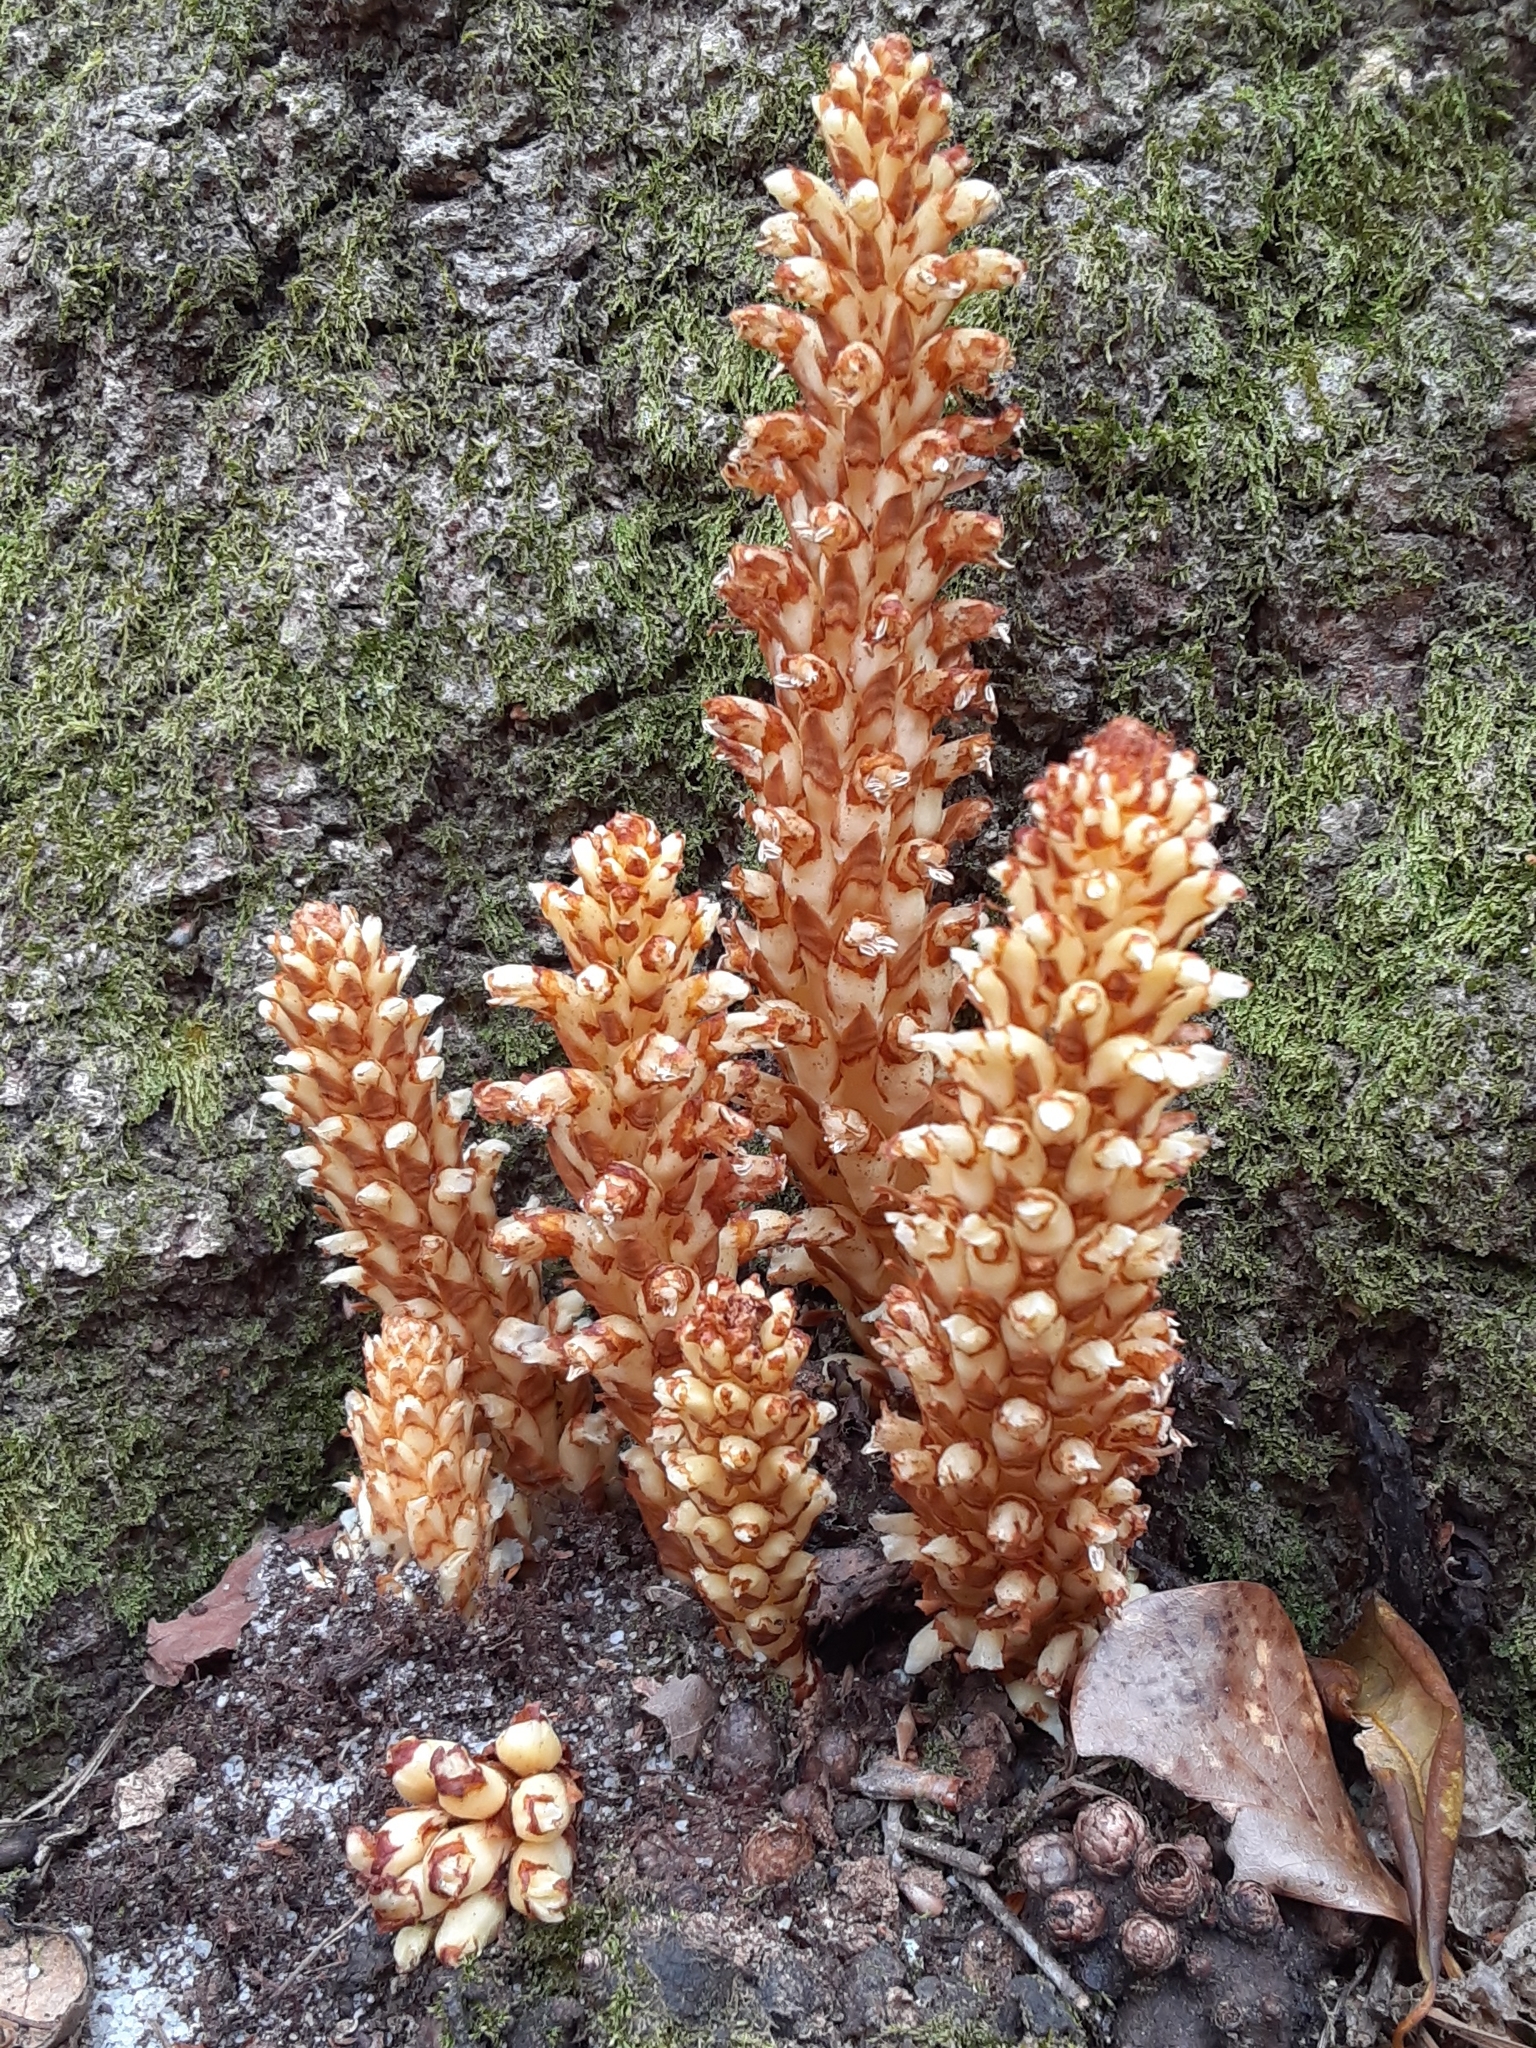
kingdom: Plantae
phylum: Tracheophyta
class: Magnoliopsida
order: Lamiales
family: Orobanchaceae
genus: Conopholis
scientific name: Conopholis americana
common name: American cancer-root
